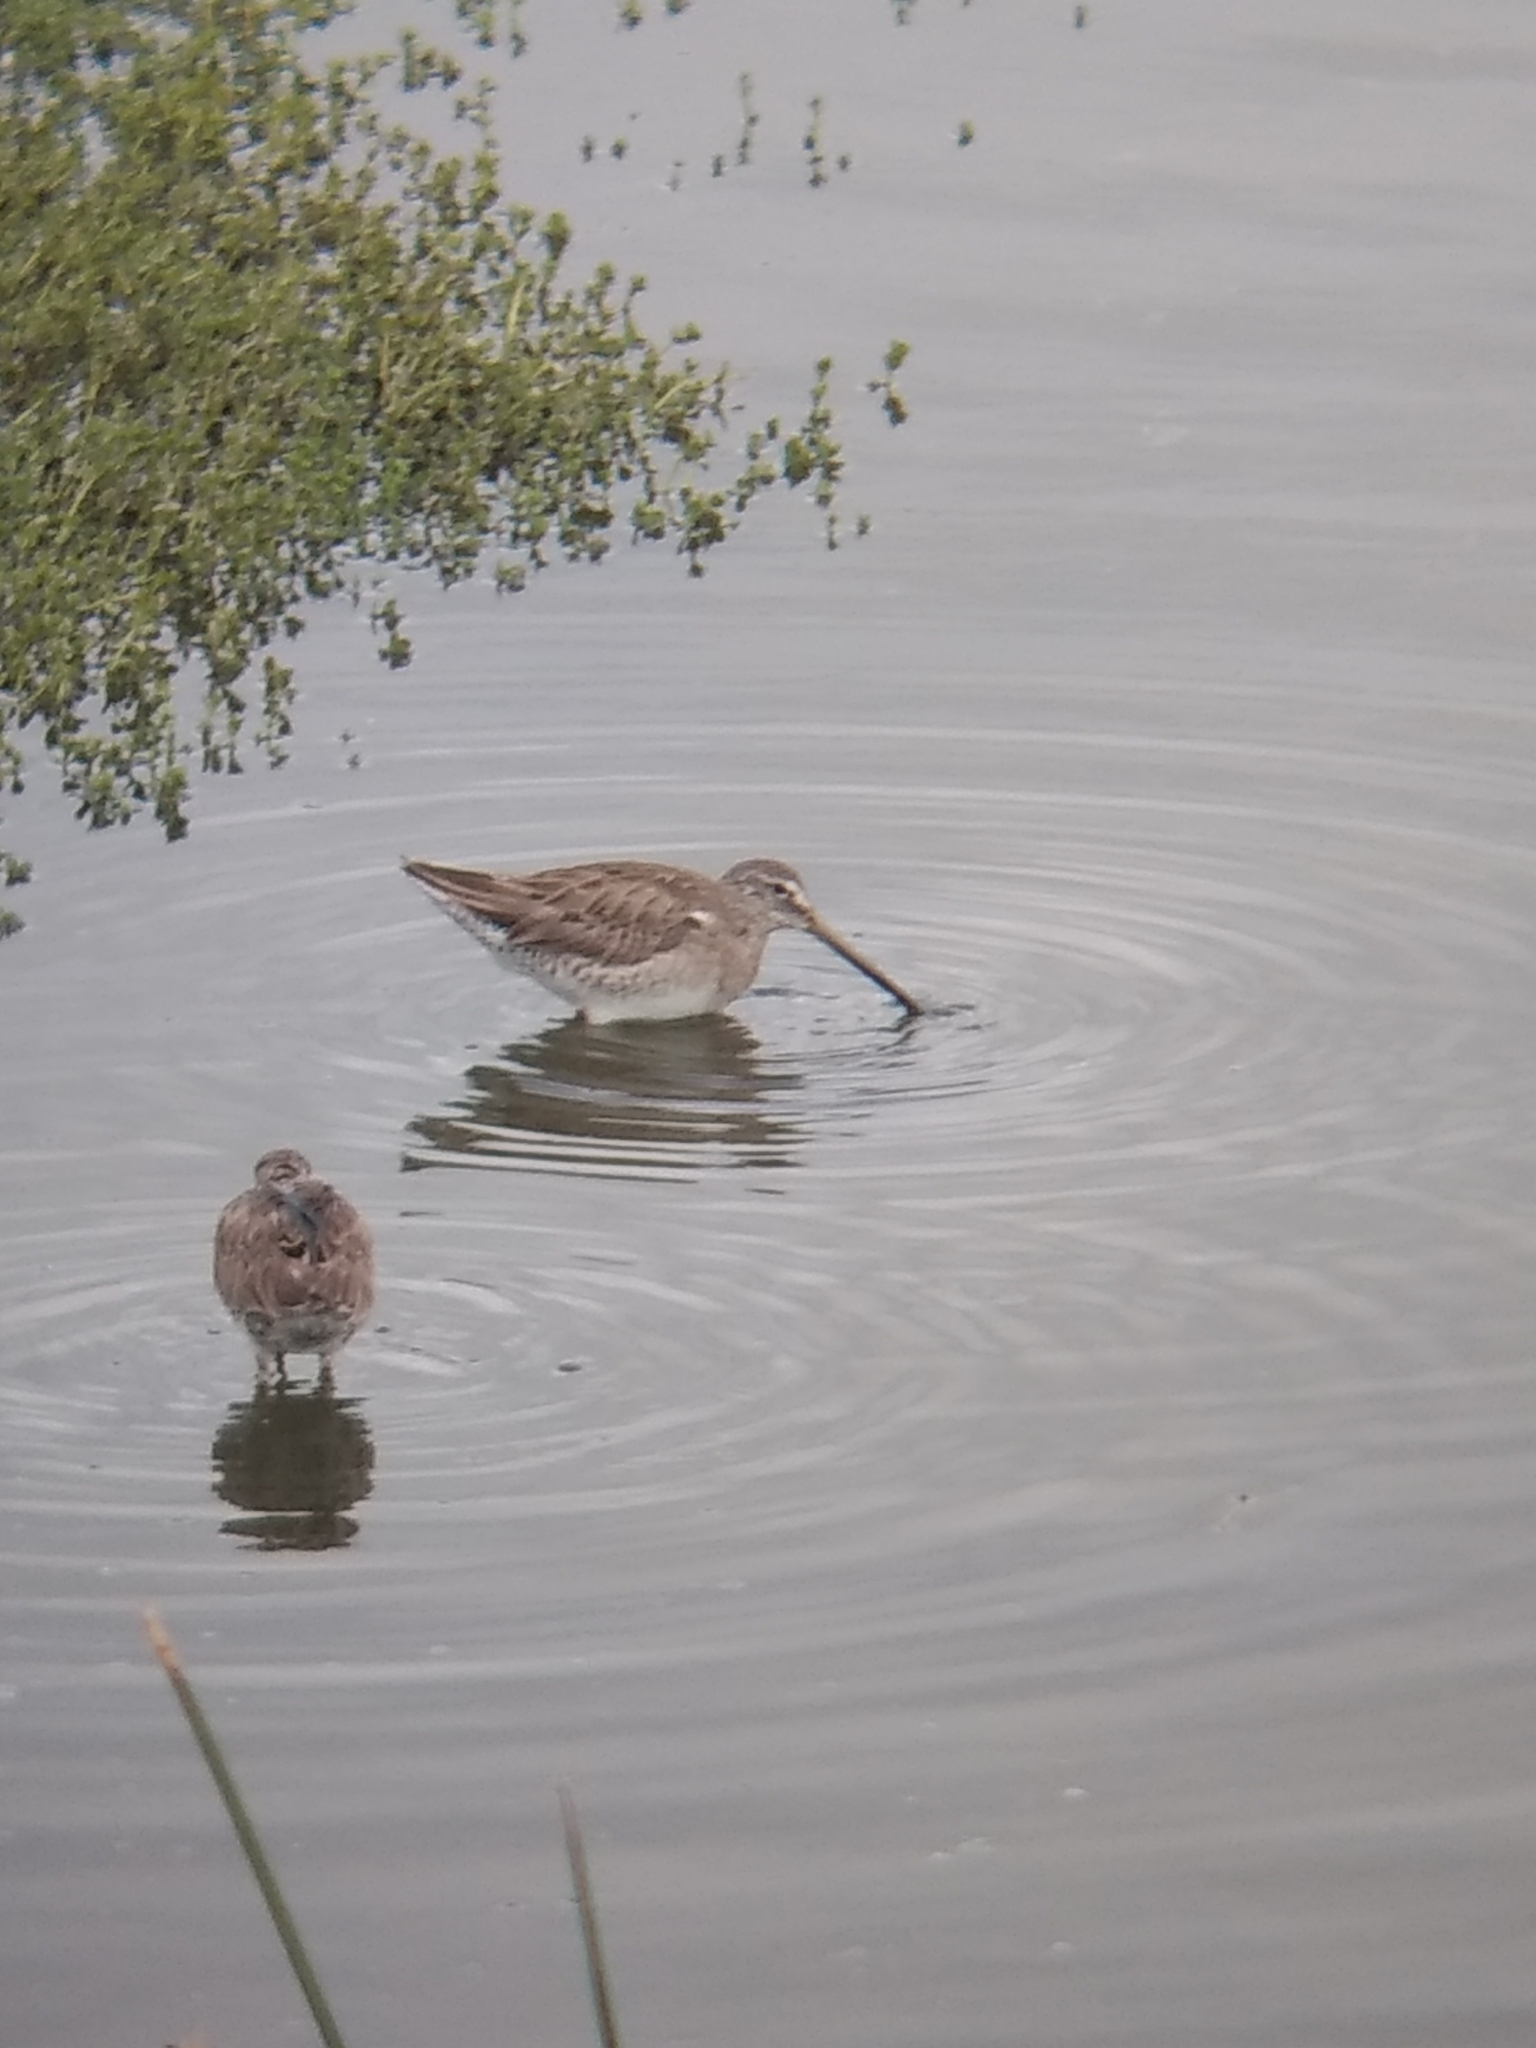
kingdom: Animalia
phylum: Chordata
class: Aves
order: Charadriiformes
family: Scolopacidae
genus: Limnodromus
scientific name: Limnodromus
